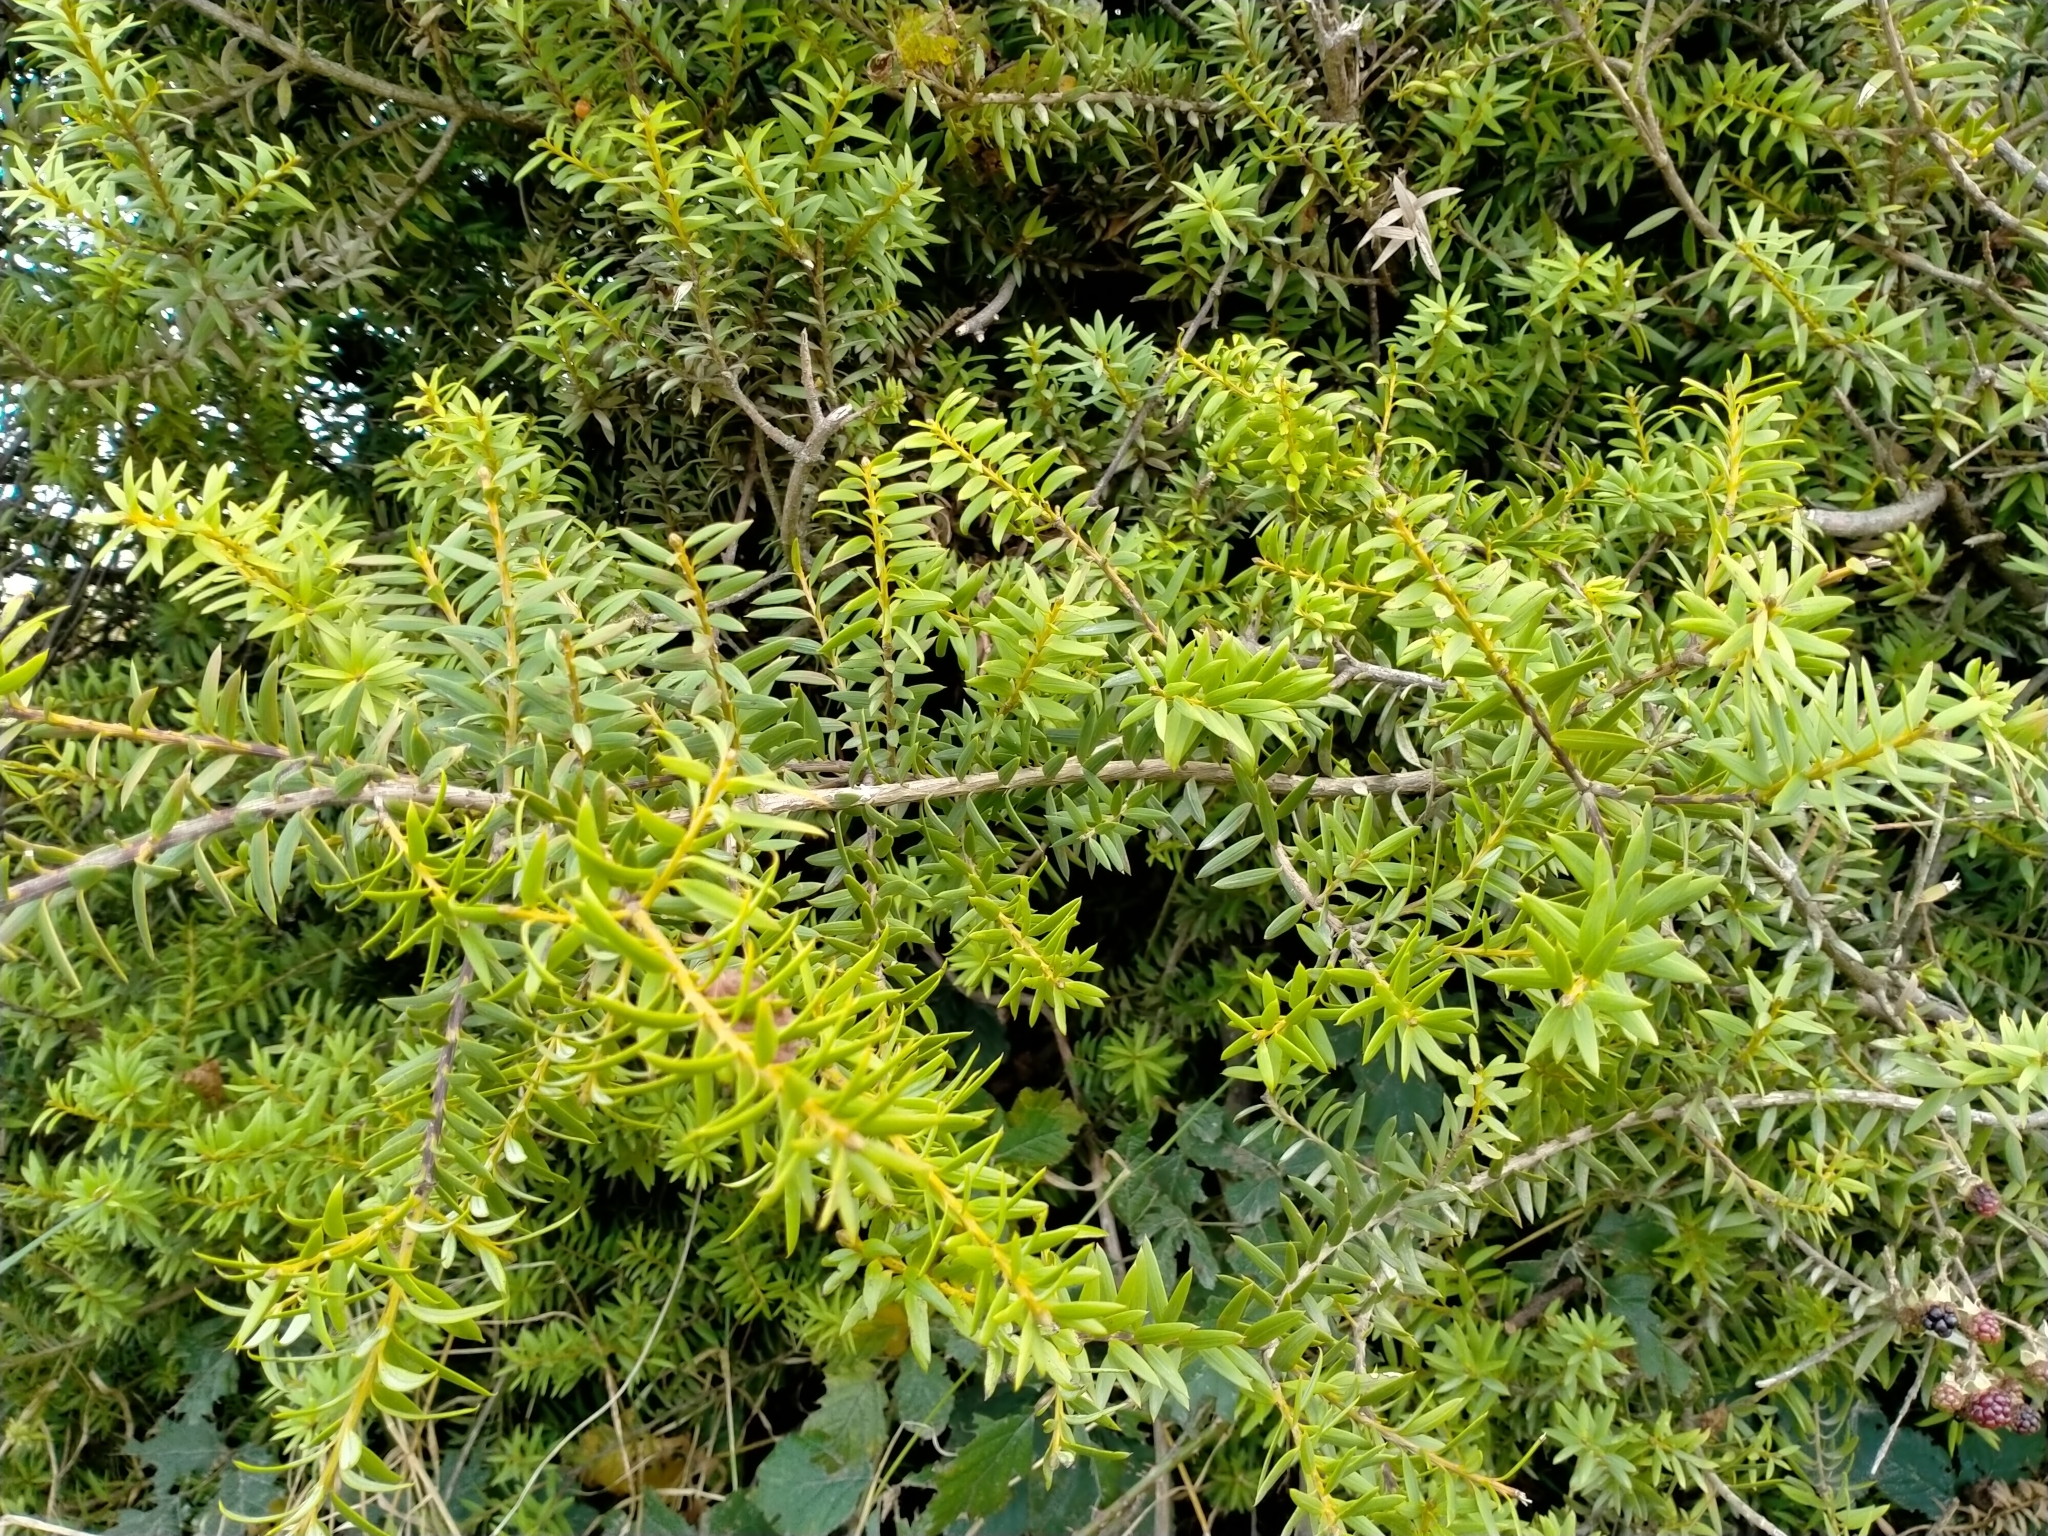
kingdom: Plantae
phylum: Tracheophyta
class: Pinopsida
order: Pinales
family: Podocarpaceae
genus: Podocarpus
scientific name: Podocarpus laetus
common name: Hall's totara
